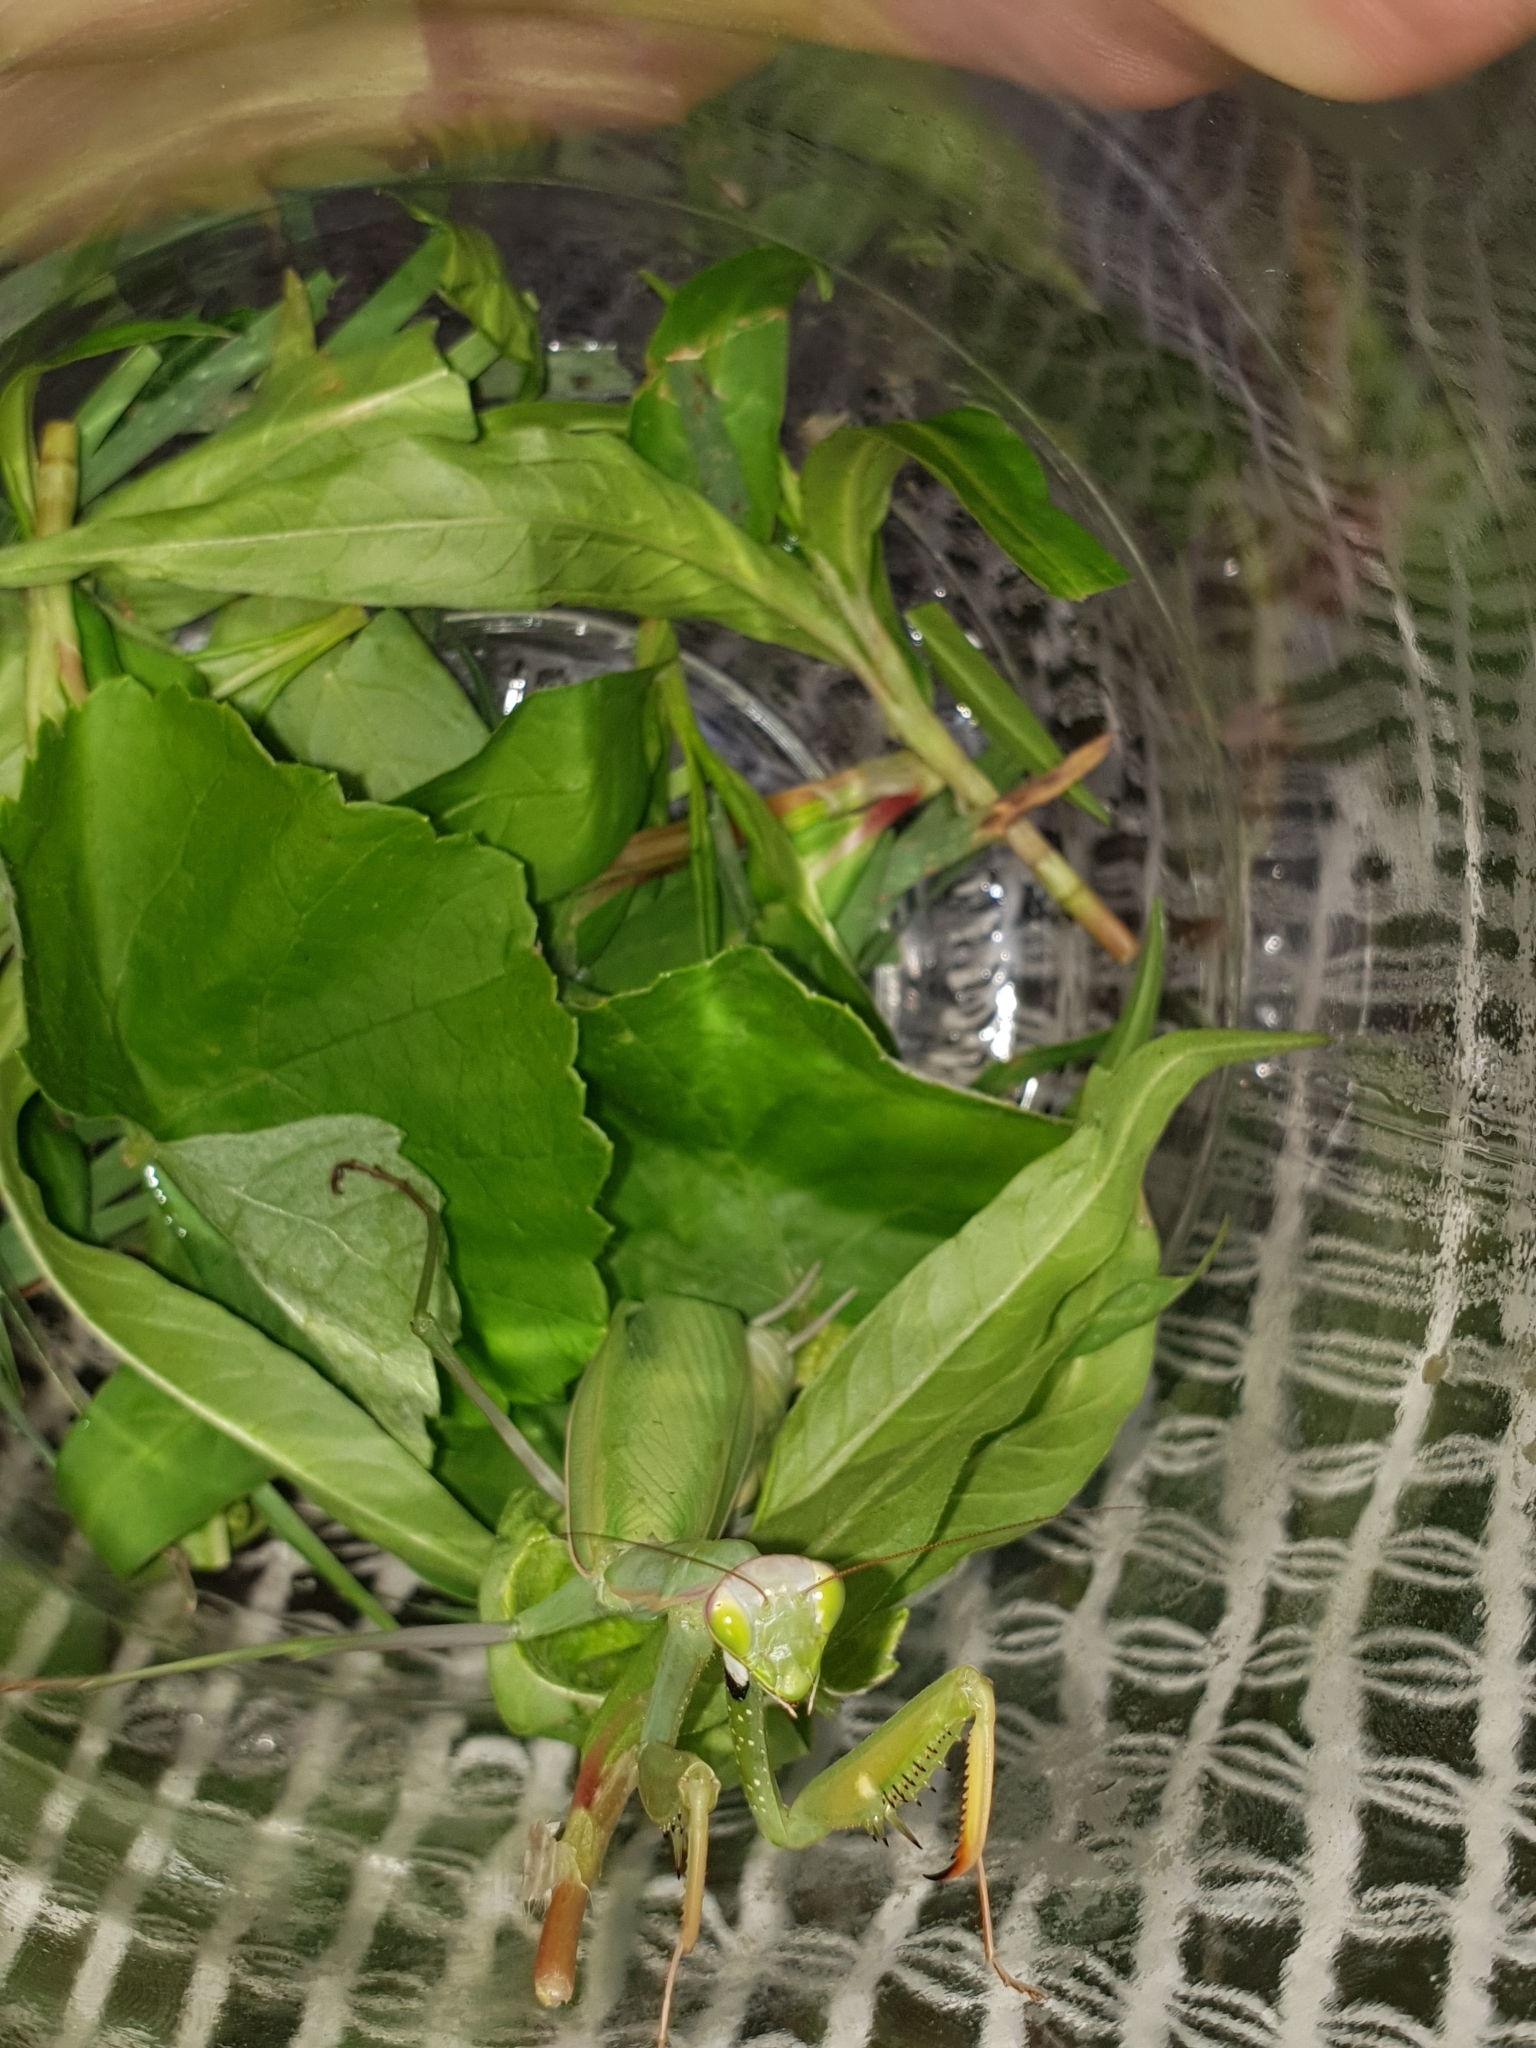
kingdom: Animalia
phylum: Arthropoda
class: Insecta
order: Mantodea
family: Mantidae
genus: Mantis
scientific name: Mantis religiosa
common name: Praying mantis
